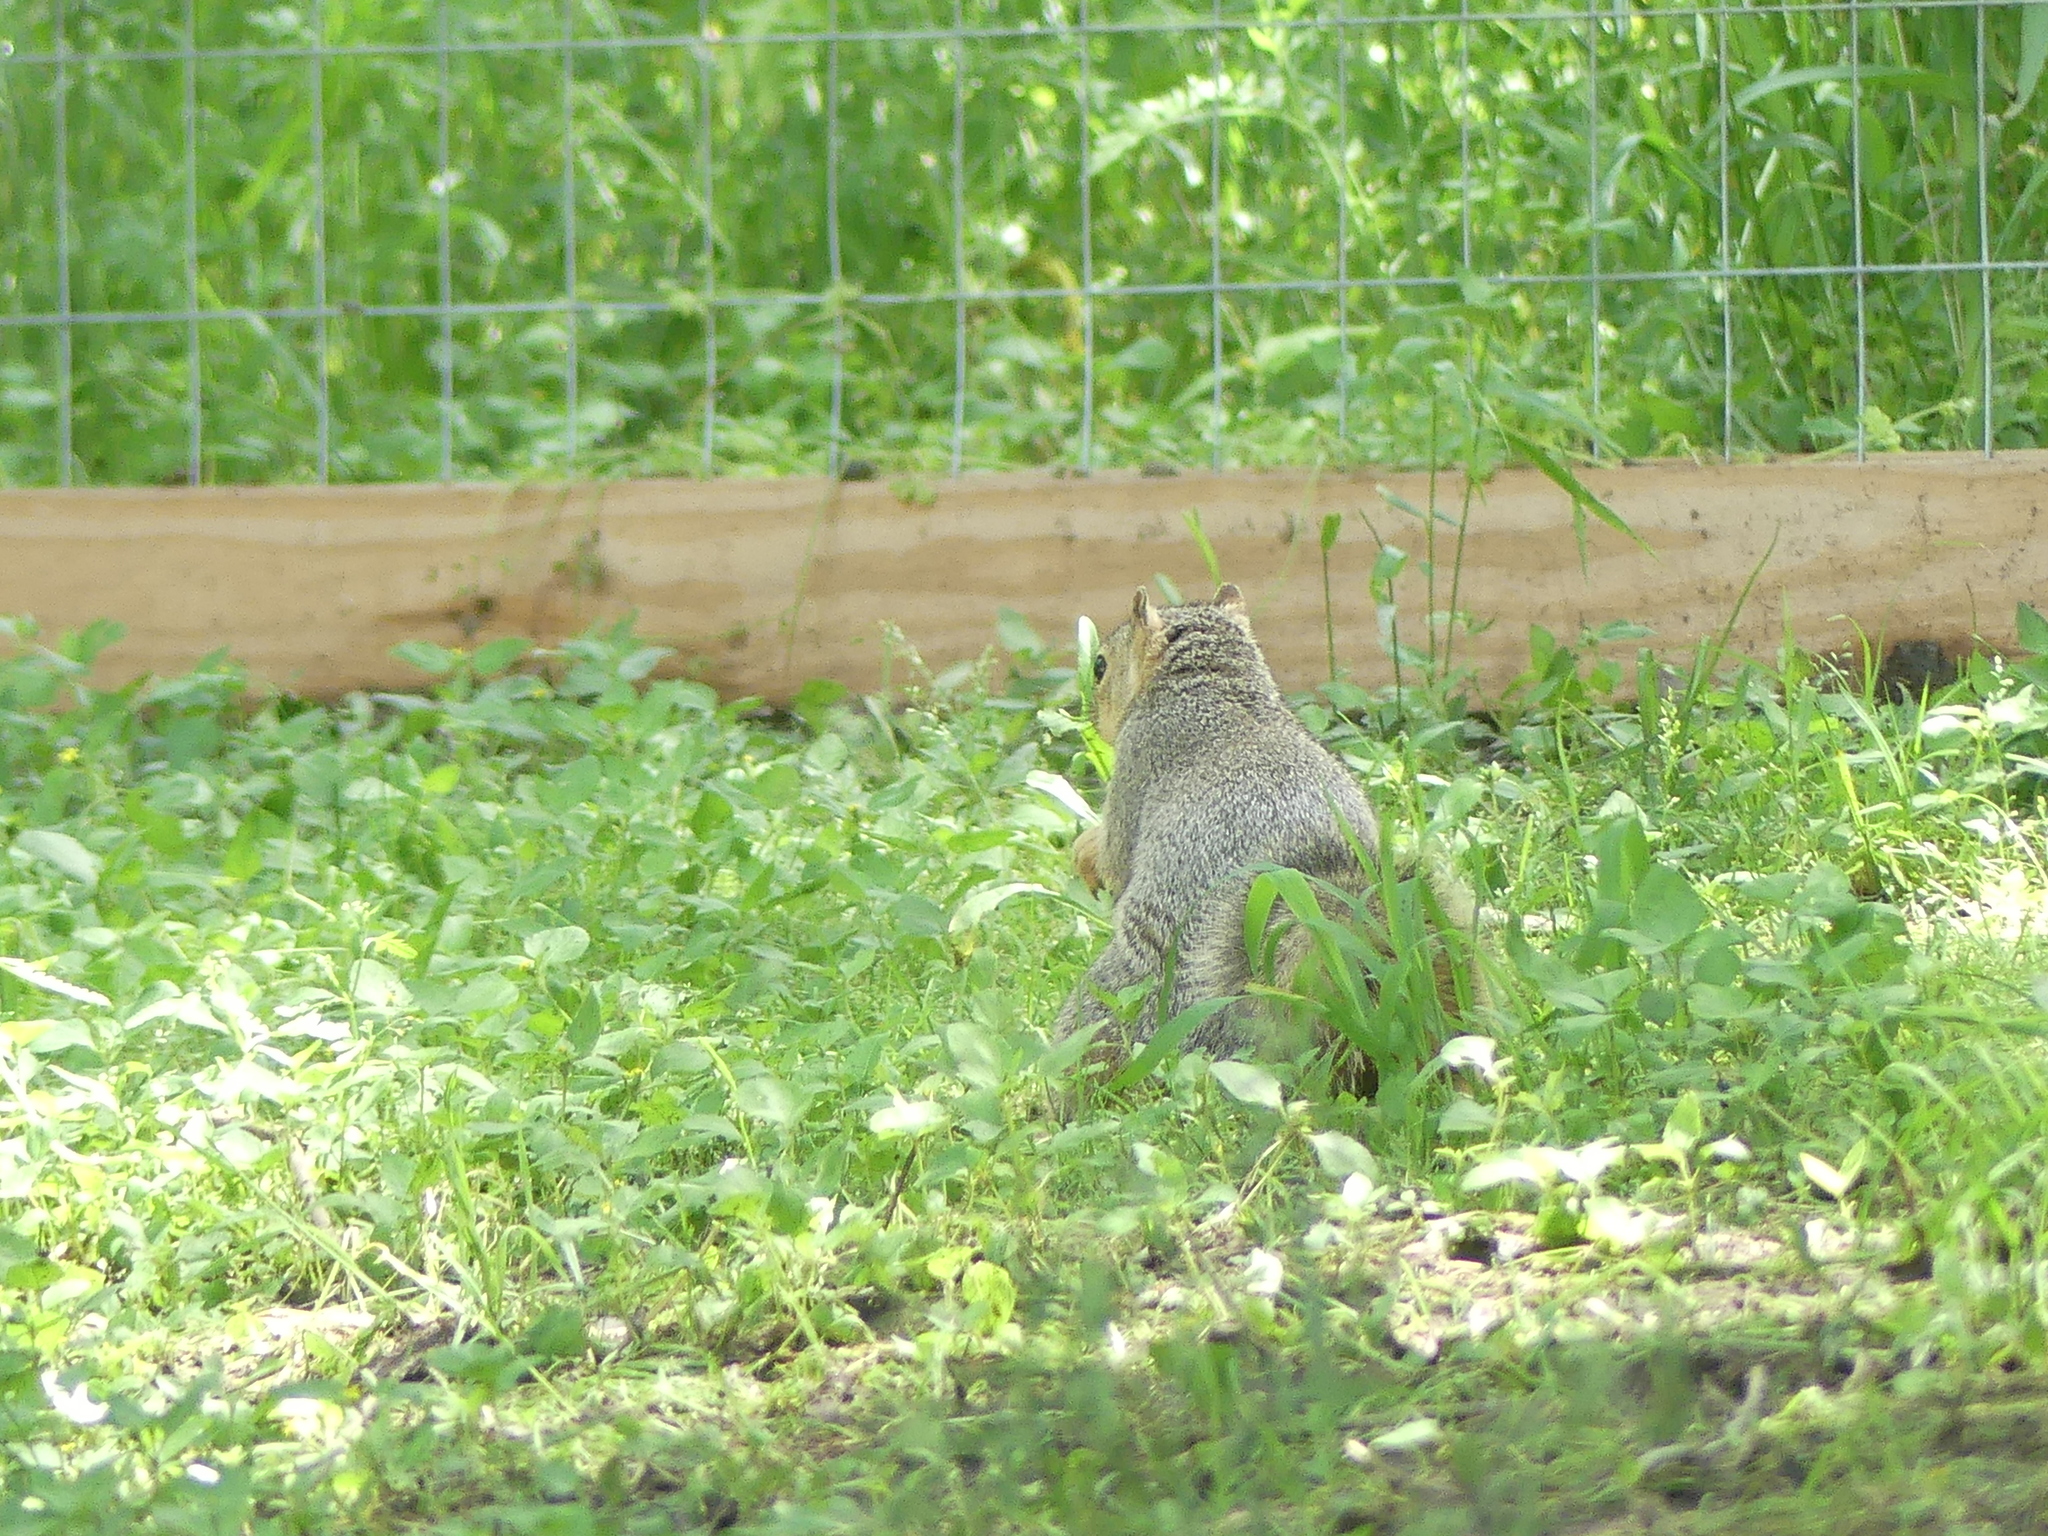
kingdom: Animalia
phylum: Chordata
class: Mammalia
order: Rodentia
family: Sciuridae
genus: Sciurus
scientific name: Sciurus niger
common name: Fox squirrel
